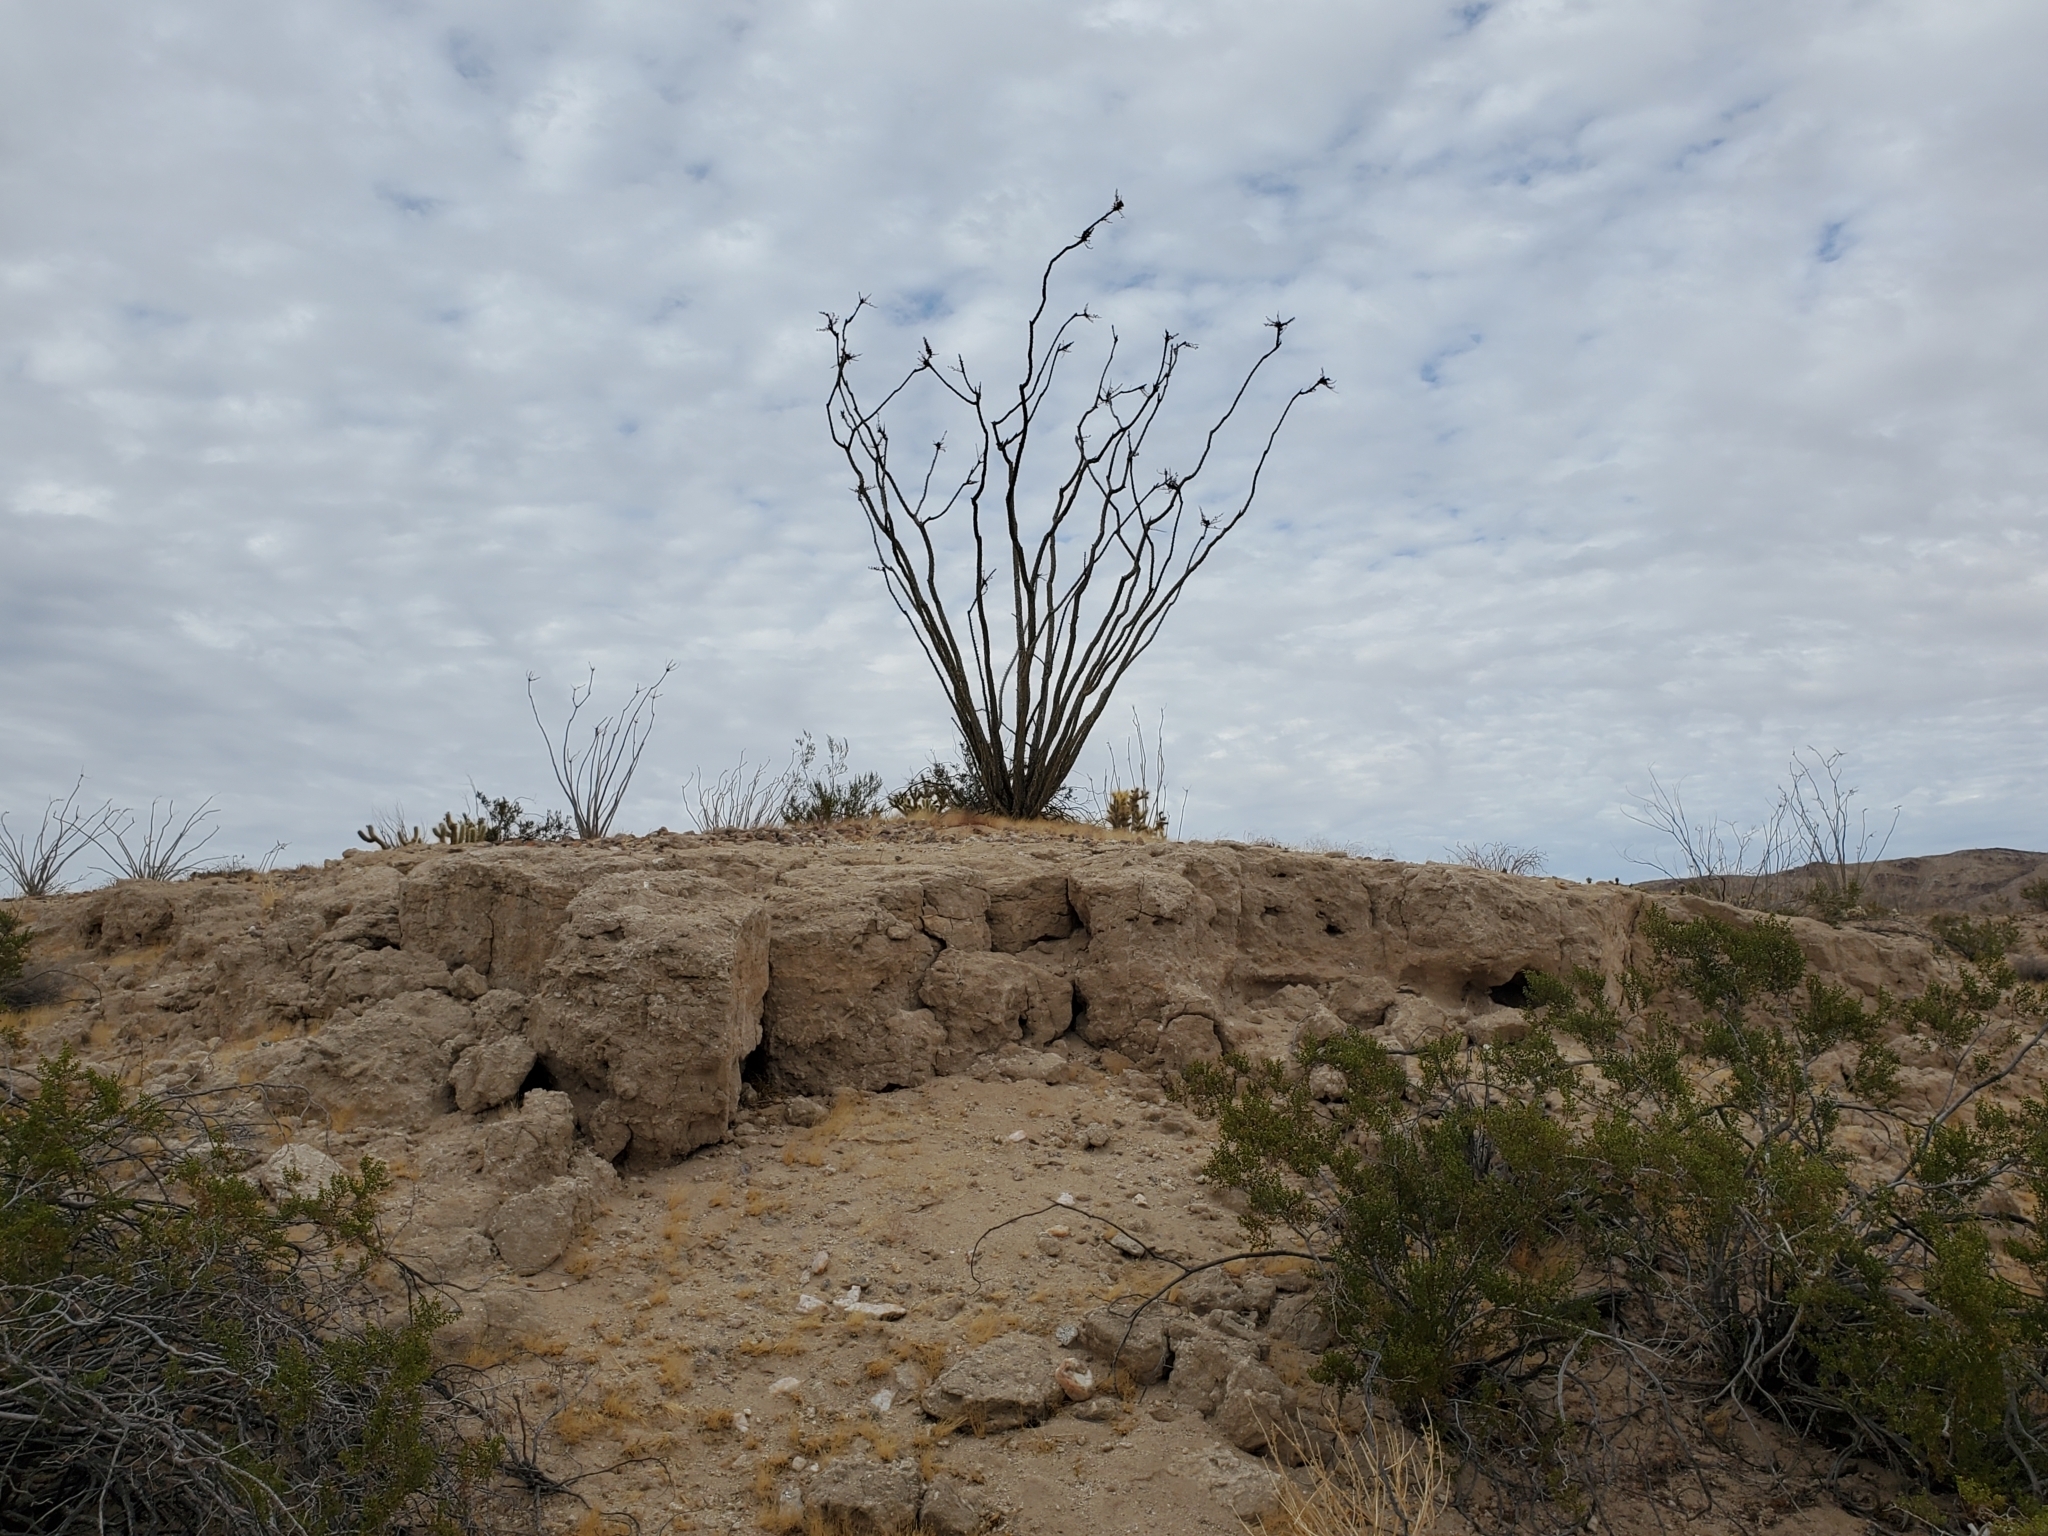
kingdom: Plantae
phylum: Tracheophyta
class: Magnoliopsida
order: Ericales
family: Fouquieriaceae
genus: Fouquieria
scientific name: Fouquieria splendens
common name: Vine-cactus
